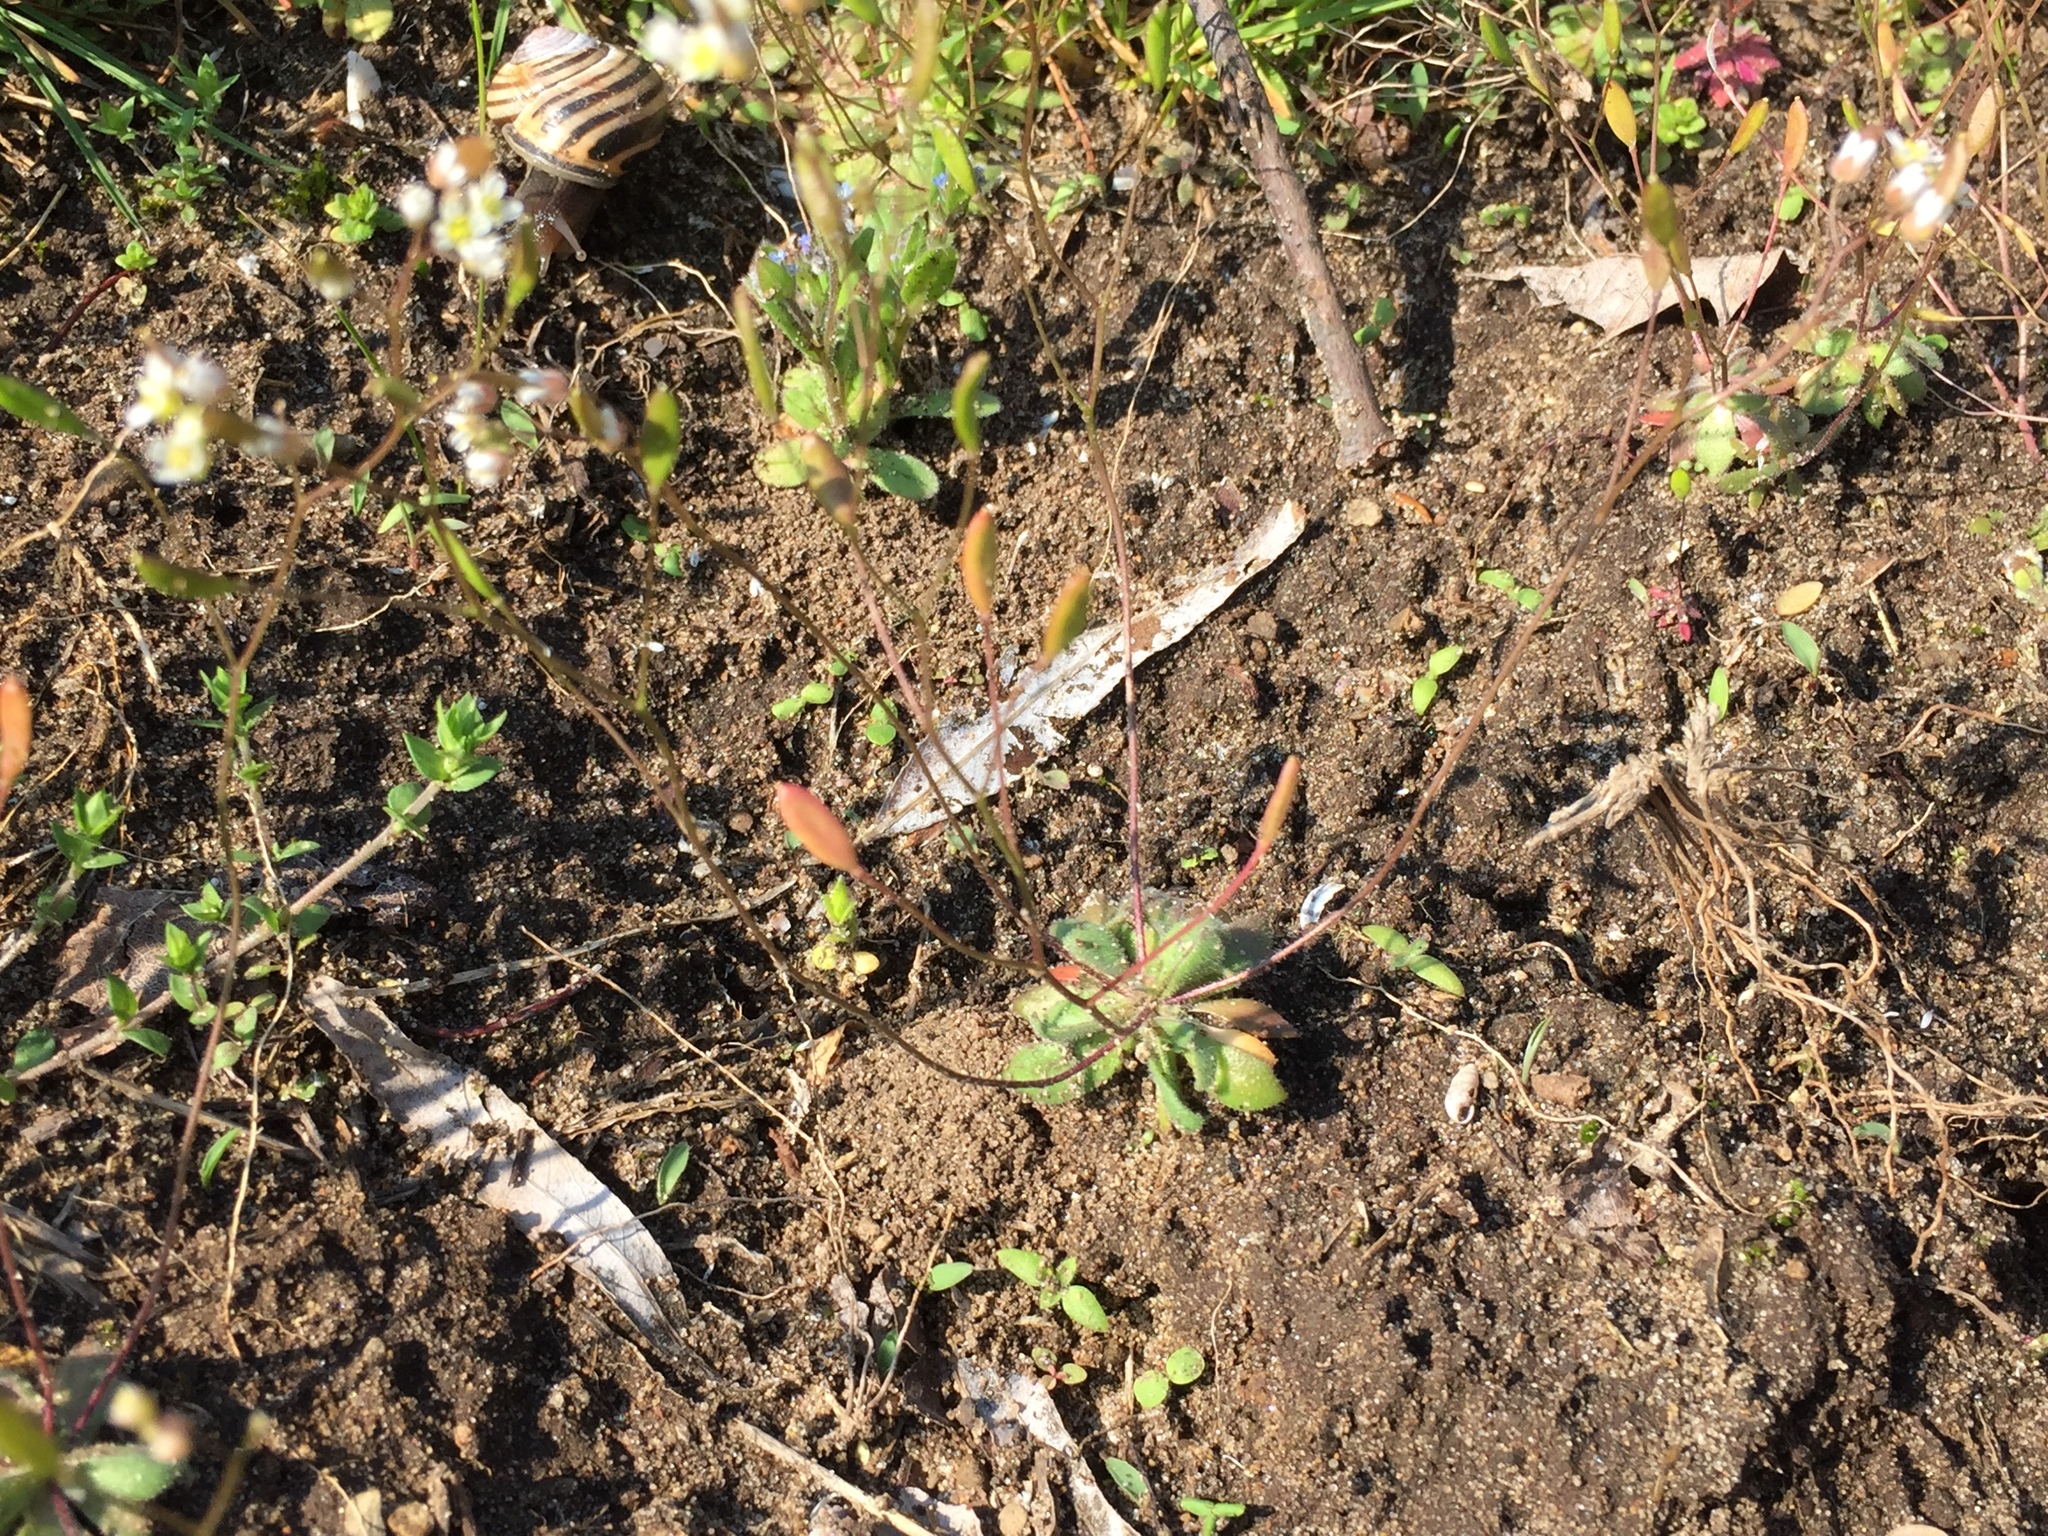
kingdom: Plantae
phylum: Tracheophyta
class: Magnoliopsida
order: Brassicales
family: Brassicaceae
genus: Draba
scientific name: Draba verna
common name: Spring draba
